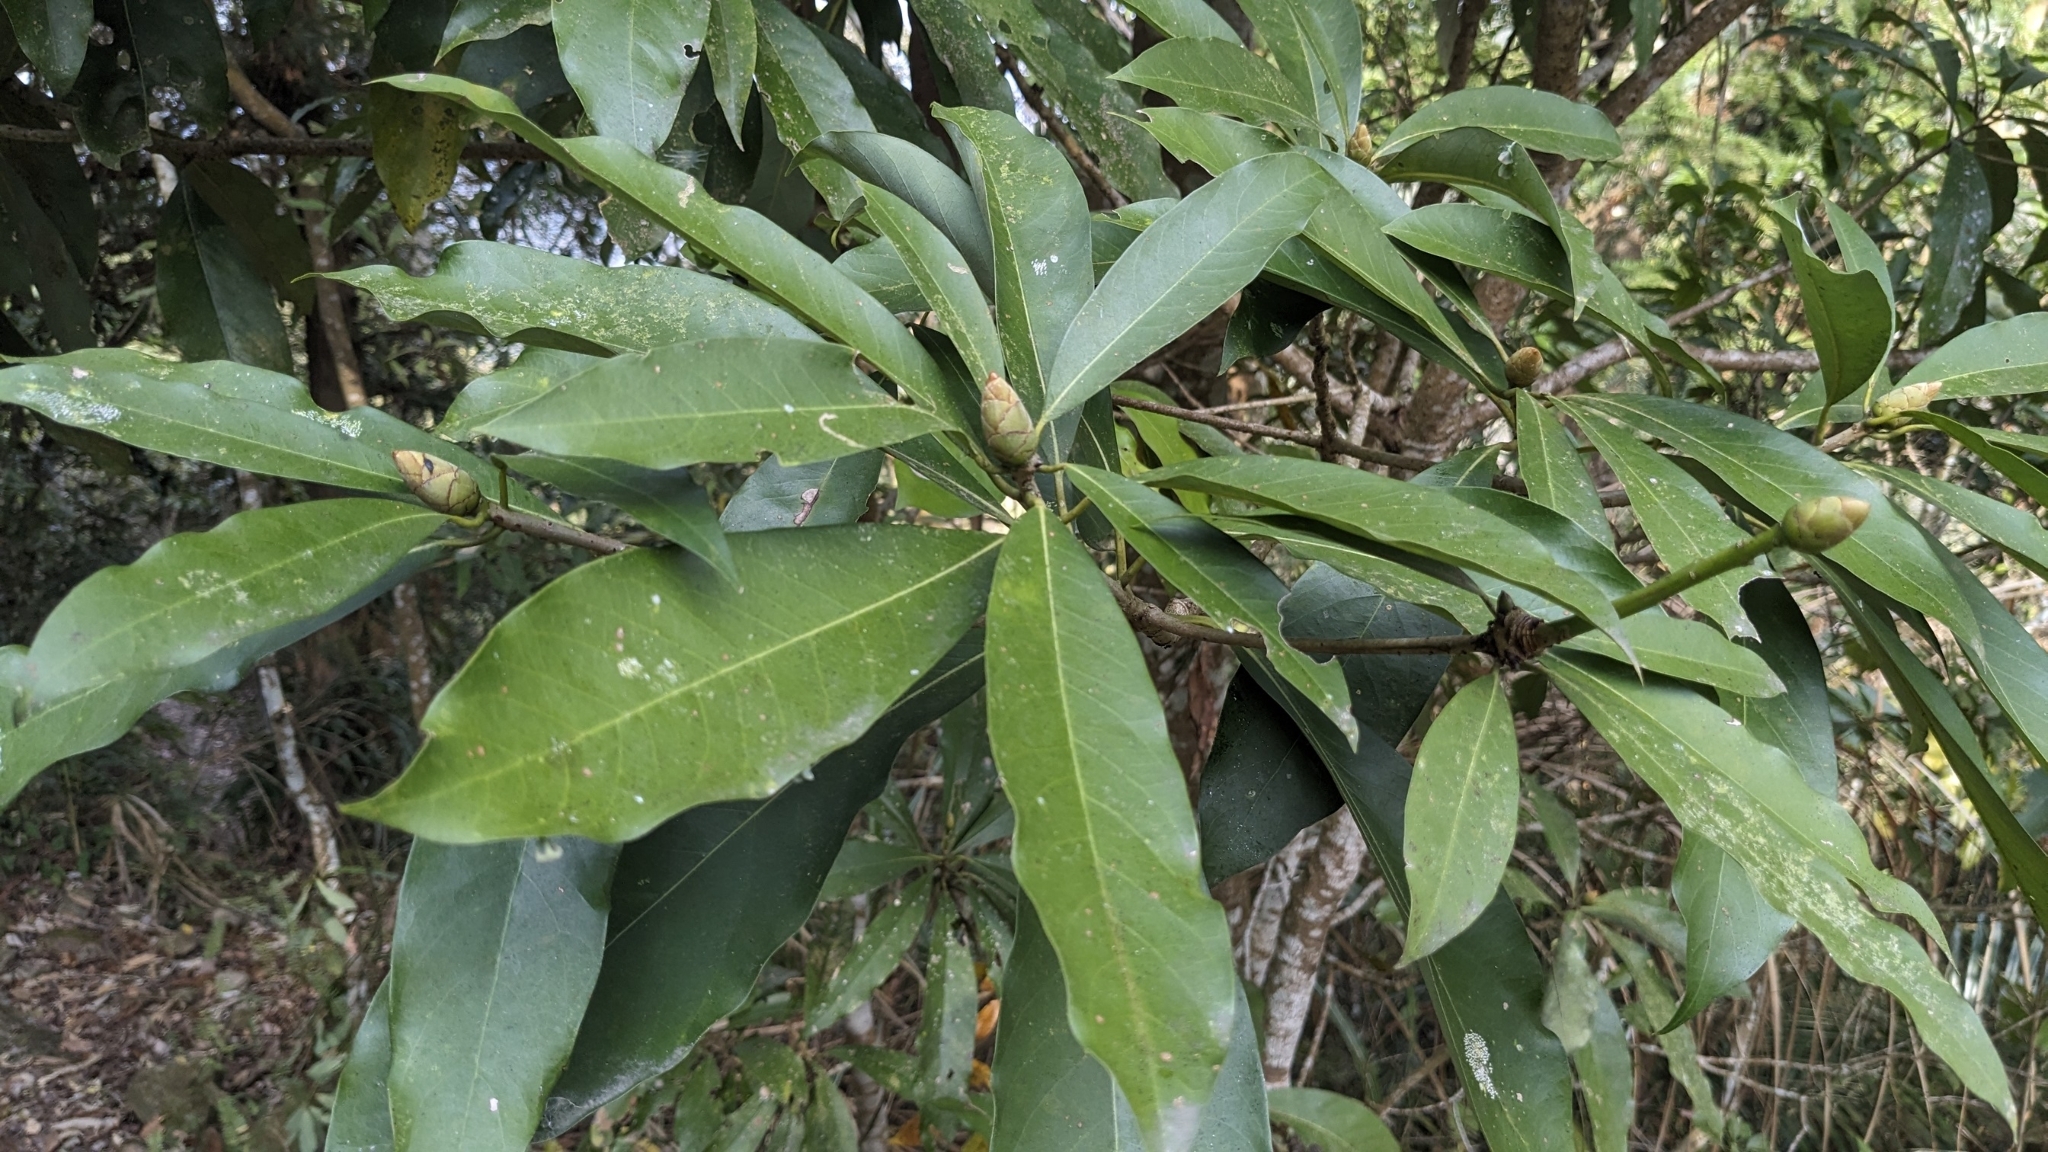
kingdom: Plantae
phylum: Tracheophyta
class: Magnoliopsida
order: Laurales
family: Lauraceae
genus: Machilus
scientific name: Machilus japonica
